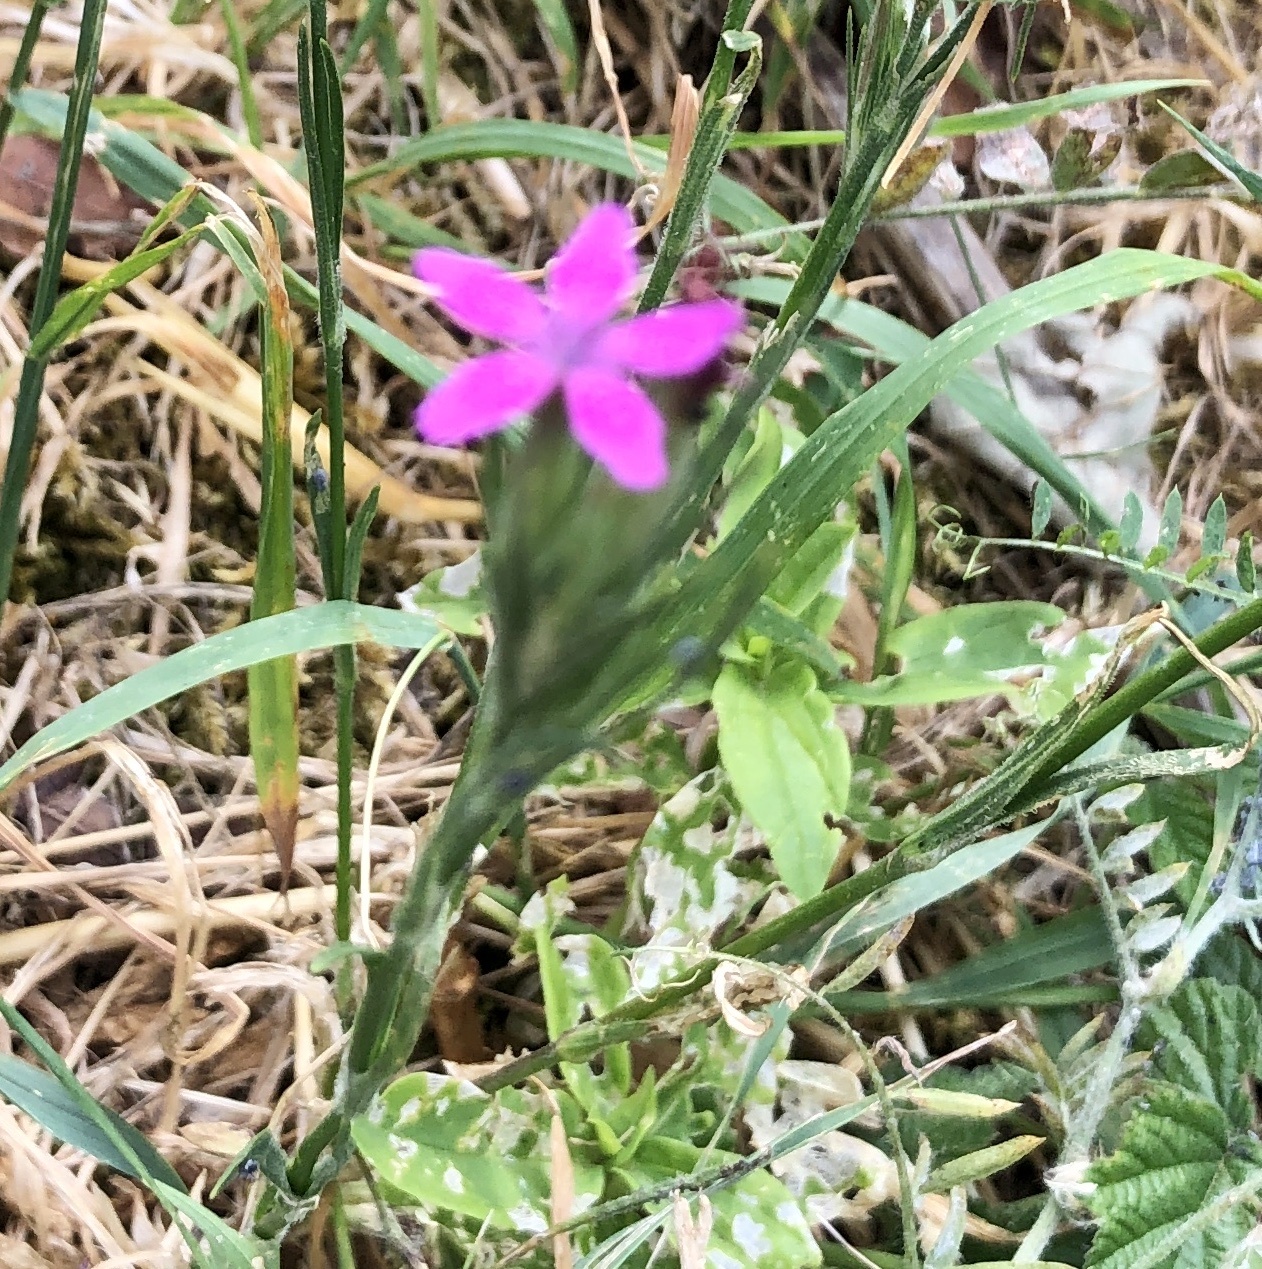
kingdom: Plantae
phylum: Tracheophyta
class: Magnoliopsida
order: Caryophyllales
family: Caryophyllaceae
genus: Dianthus
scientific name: Dianthus armeria
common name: Deptford pink
